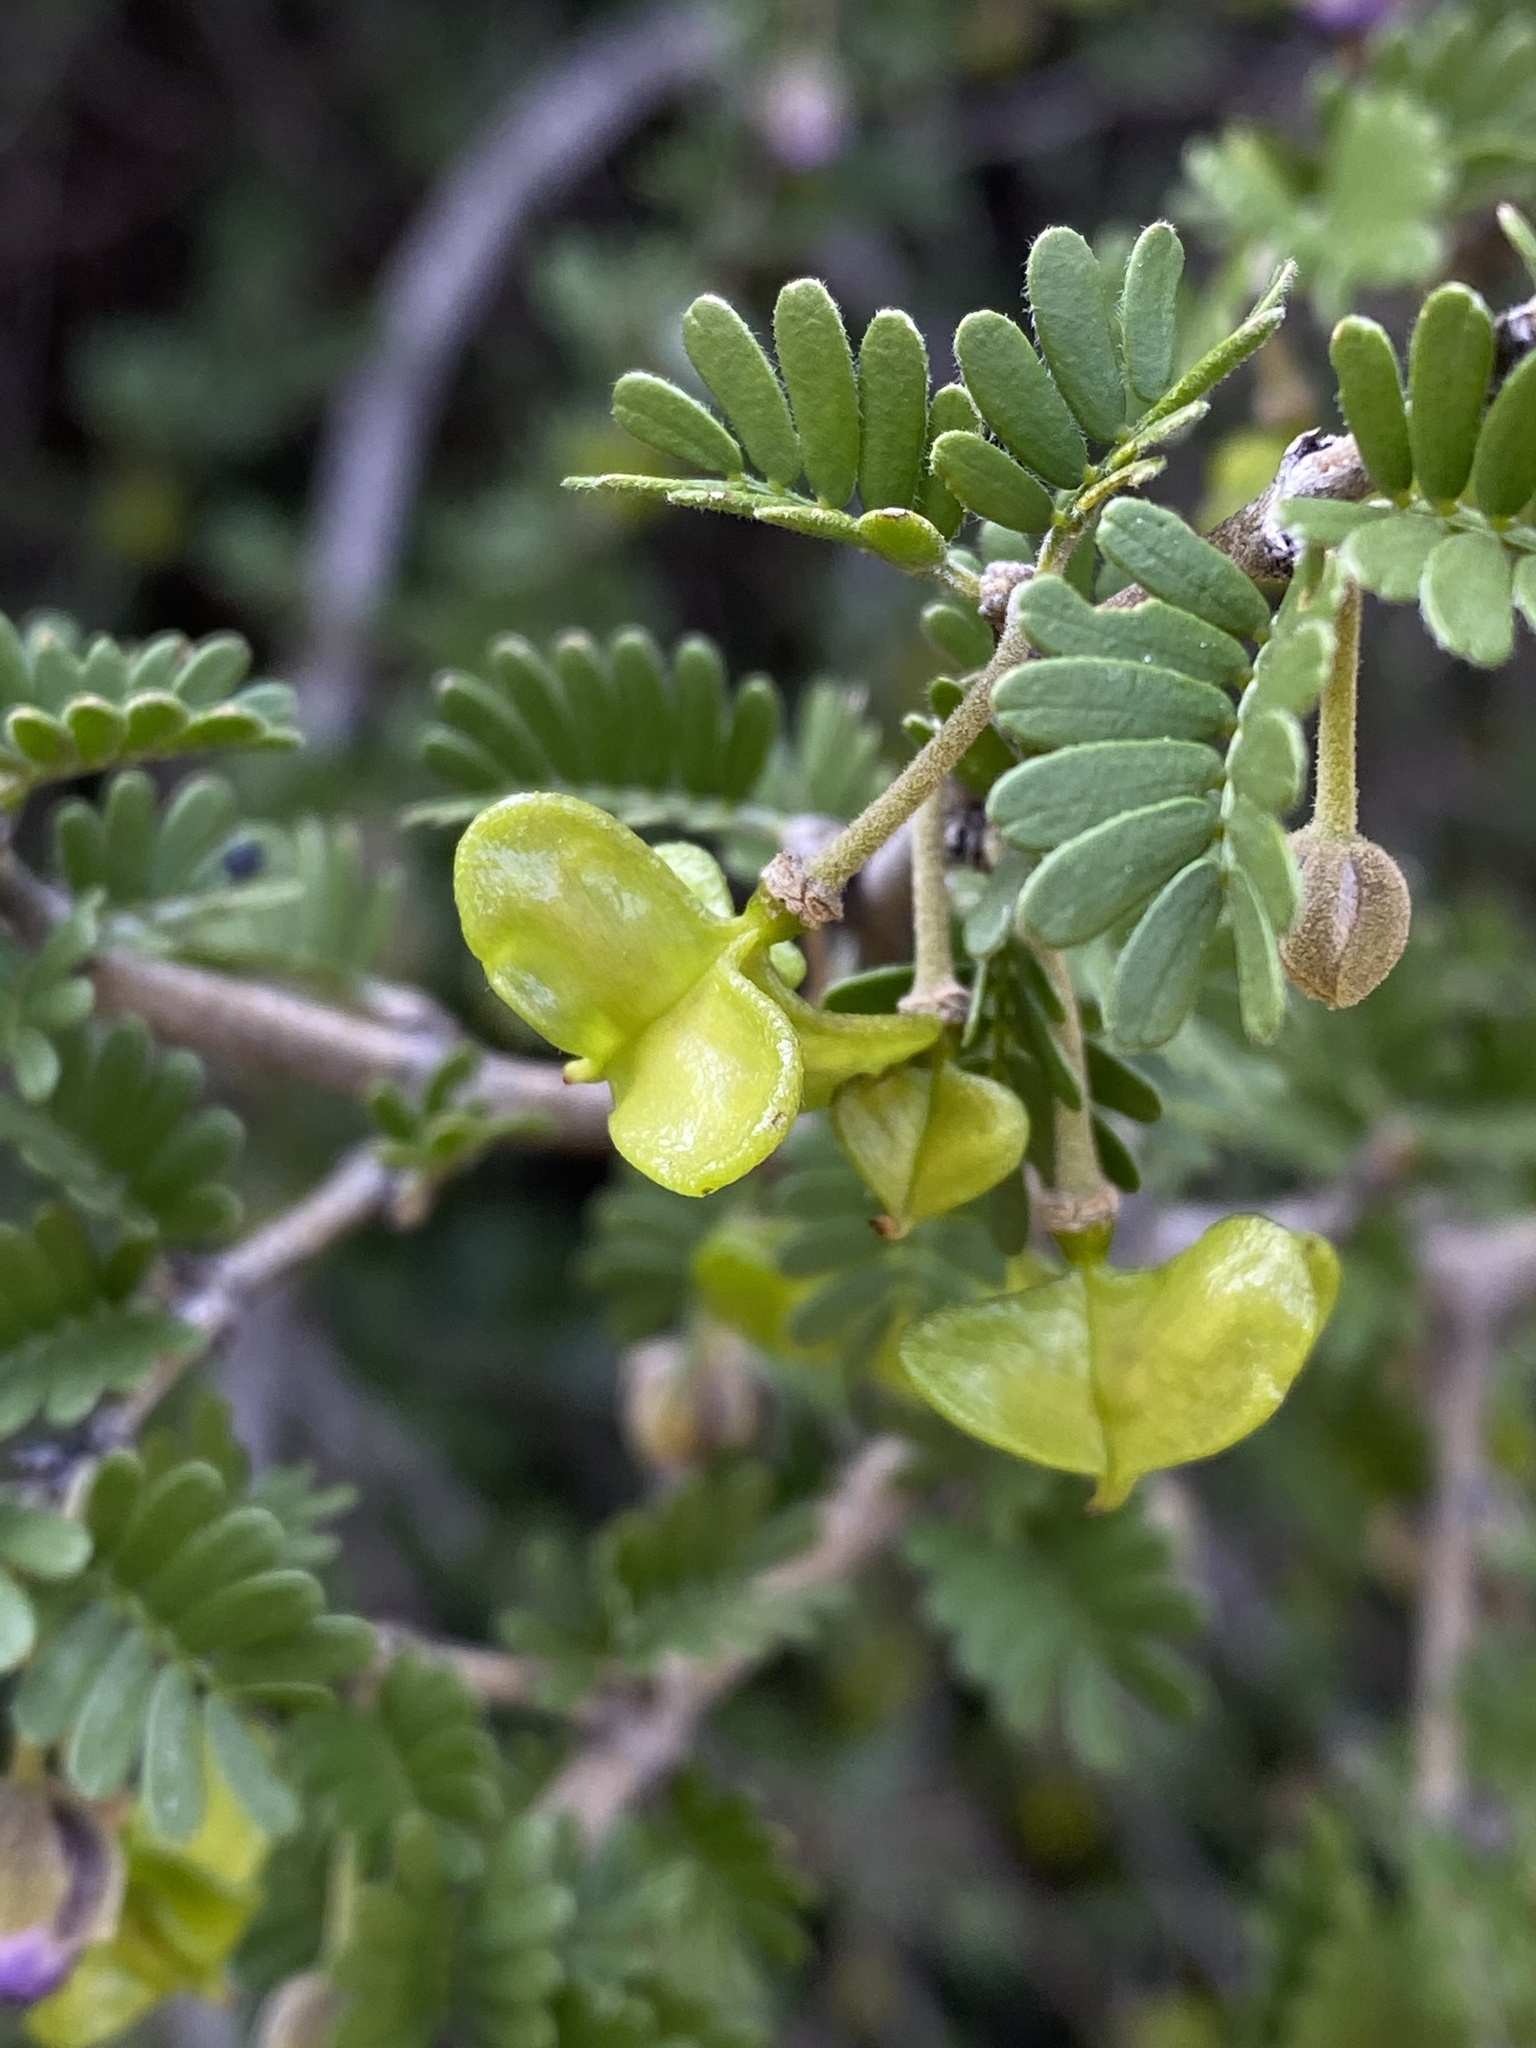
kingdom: Plantae
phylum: Tracheophyta
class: Magnoliopsida
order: Zygophyllales
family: Zygophyllaceae
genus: Porlieria
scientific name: Porlieria chilensis
